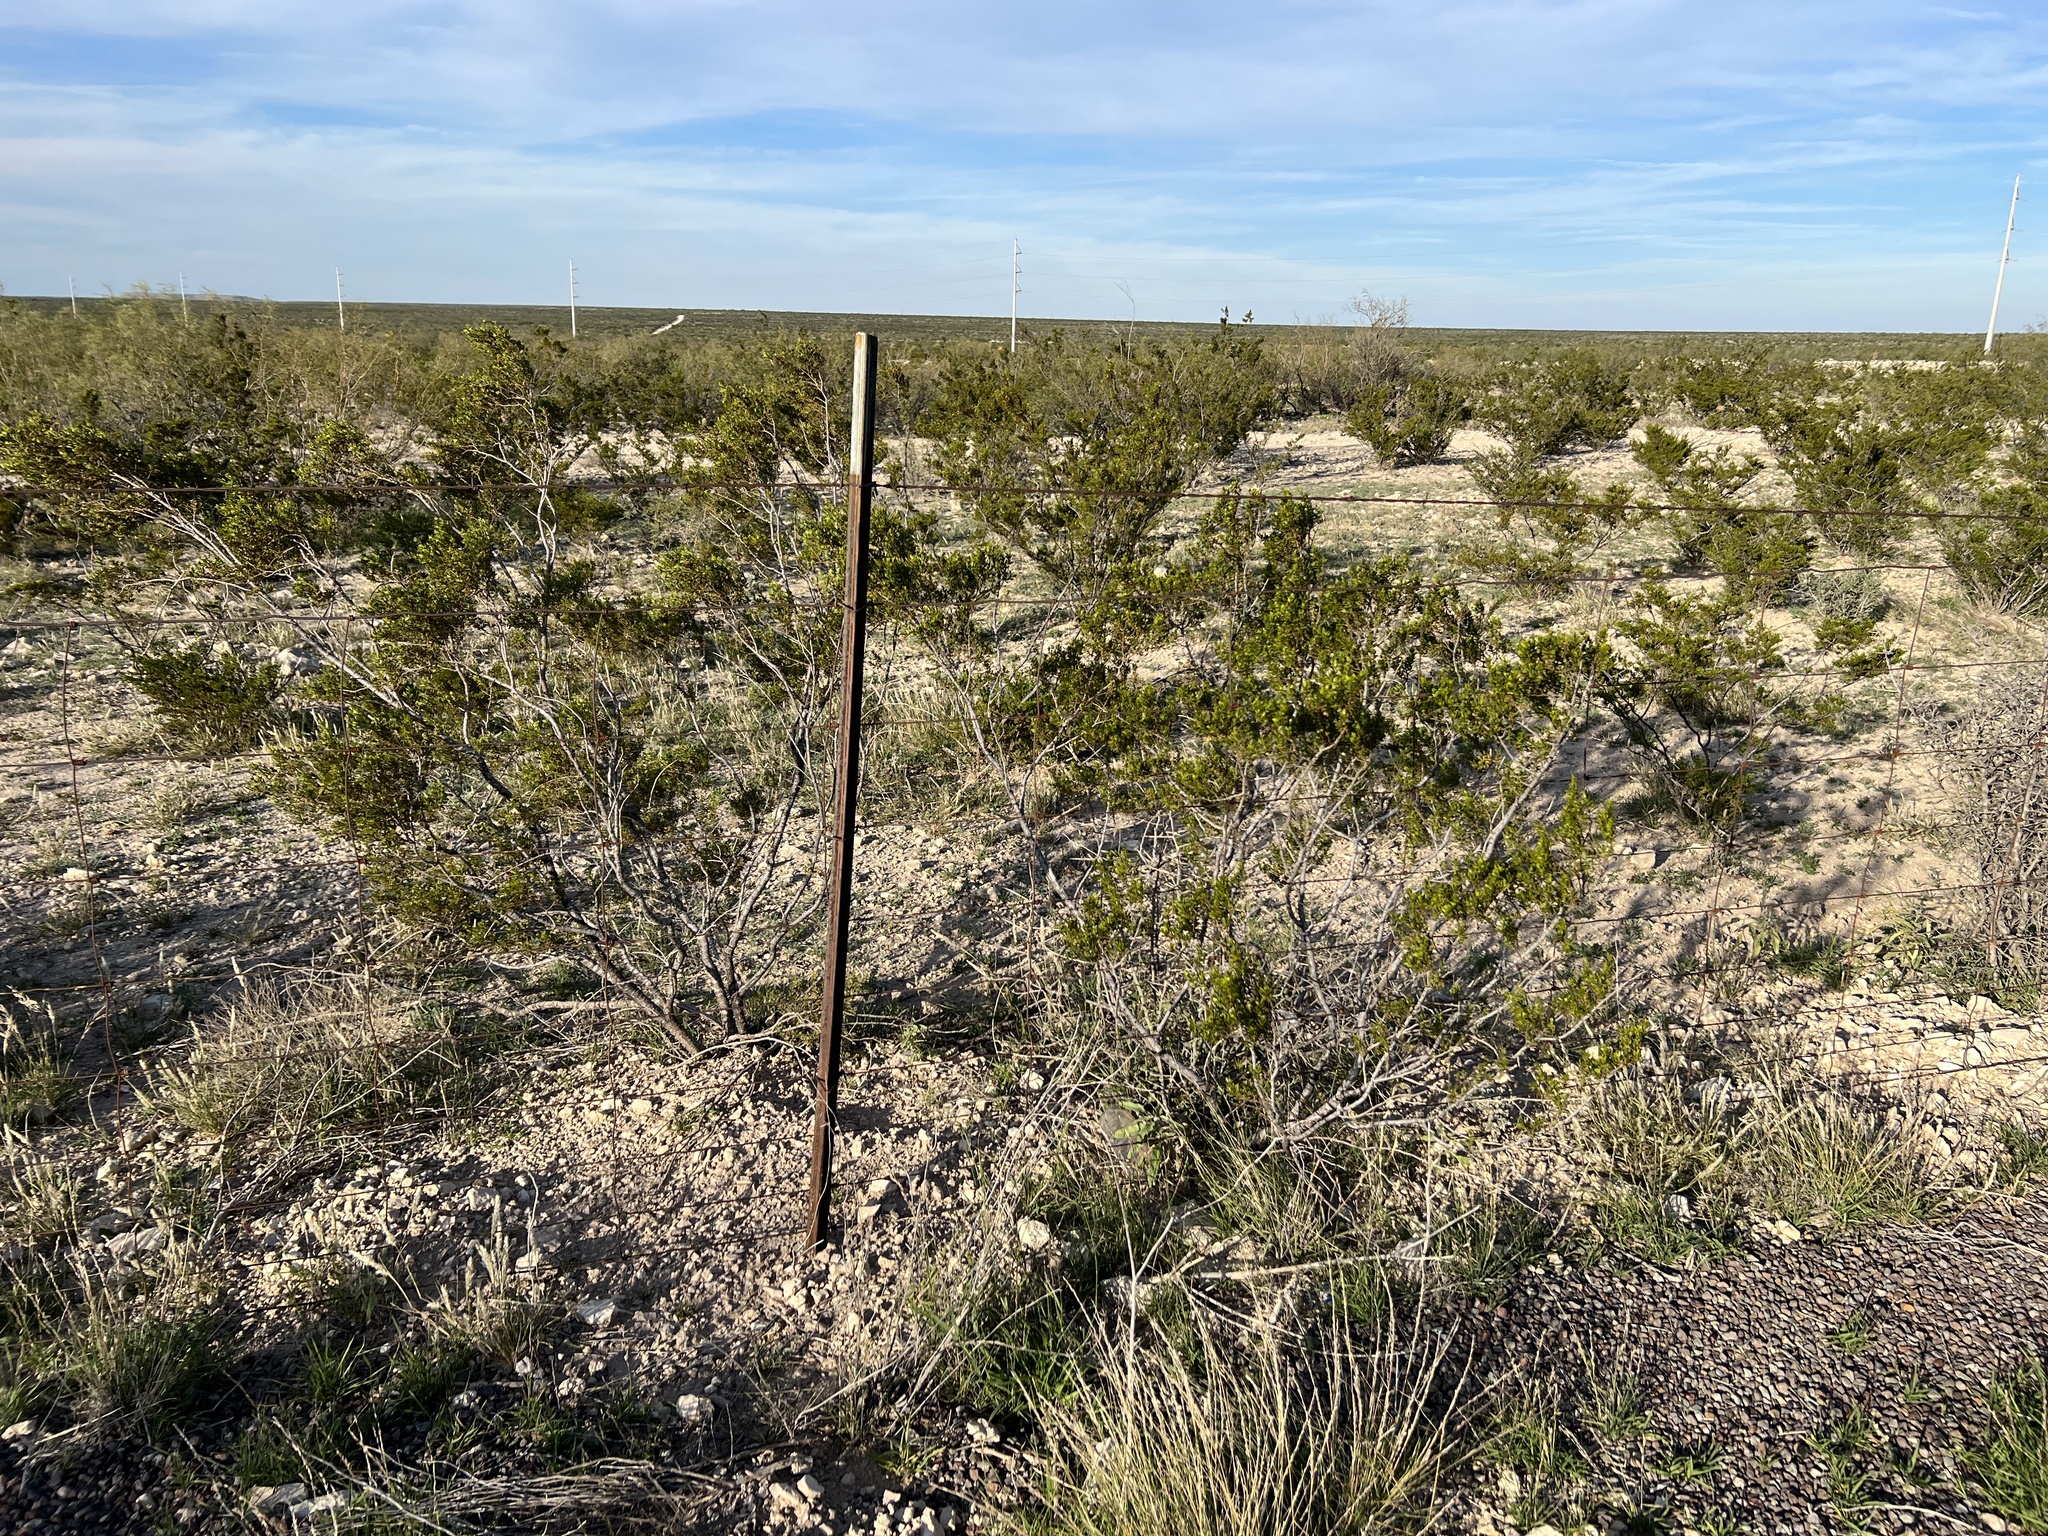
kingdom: Plantae
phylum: Tracheophyta
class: Magnoliopsida
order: Zygophyllales
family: Zygophyllaceae
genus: Larrea
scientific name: Larrea tridentata
